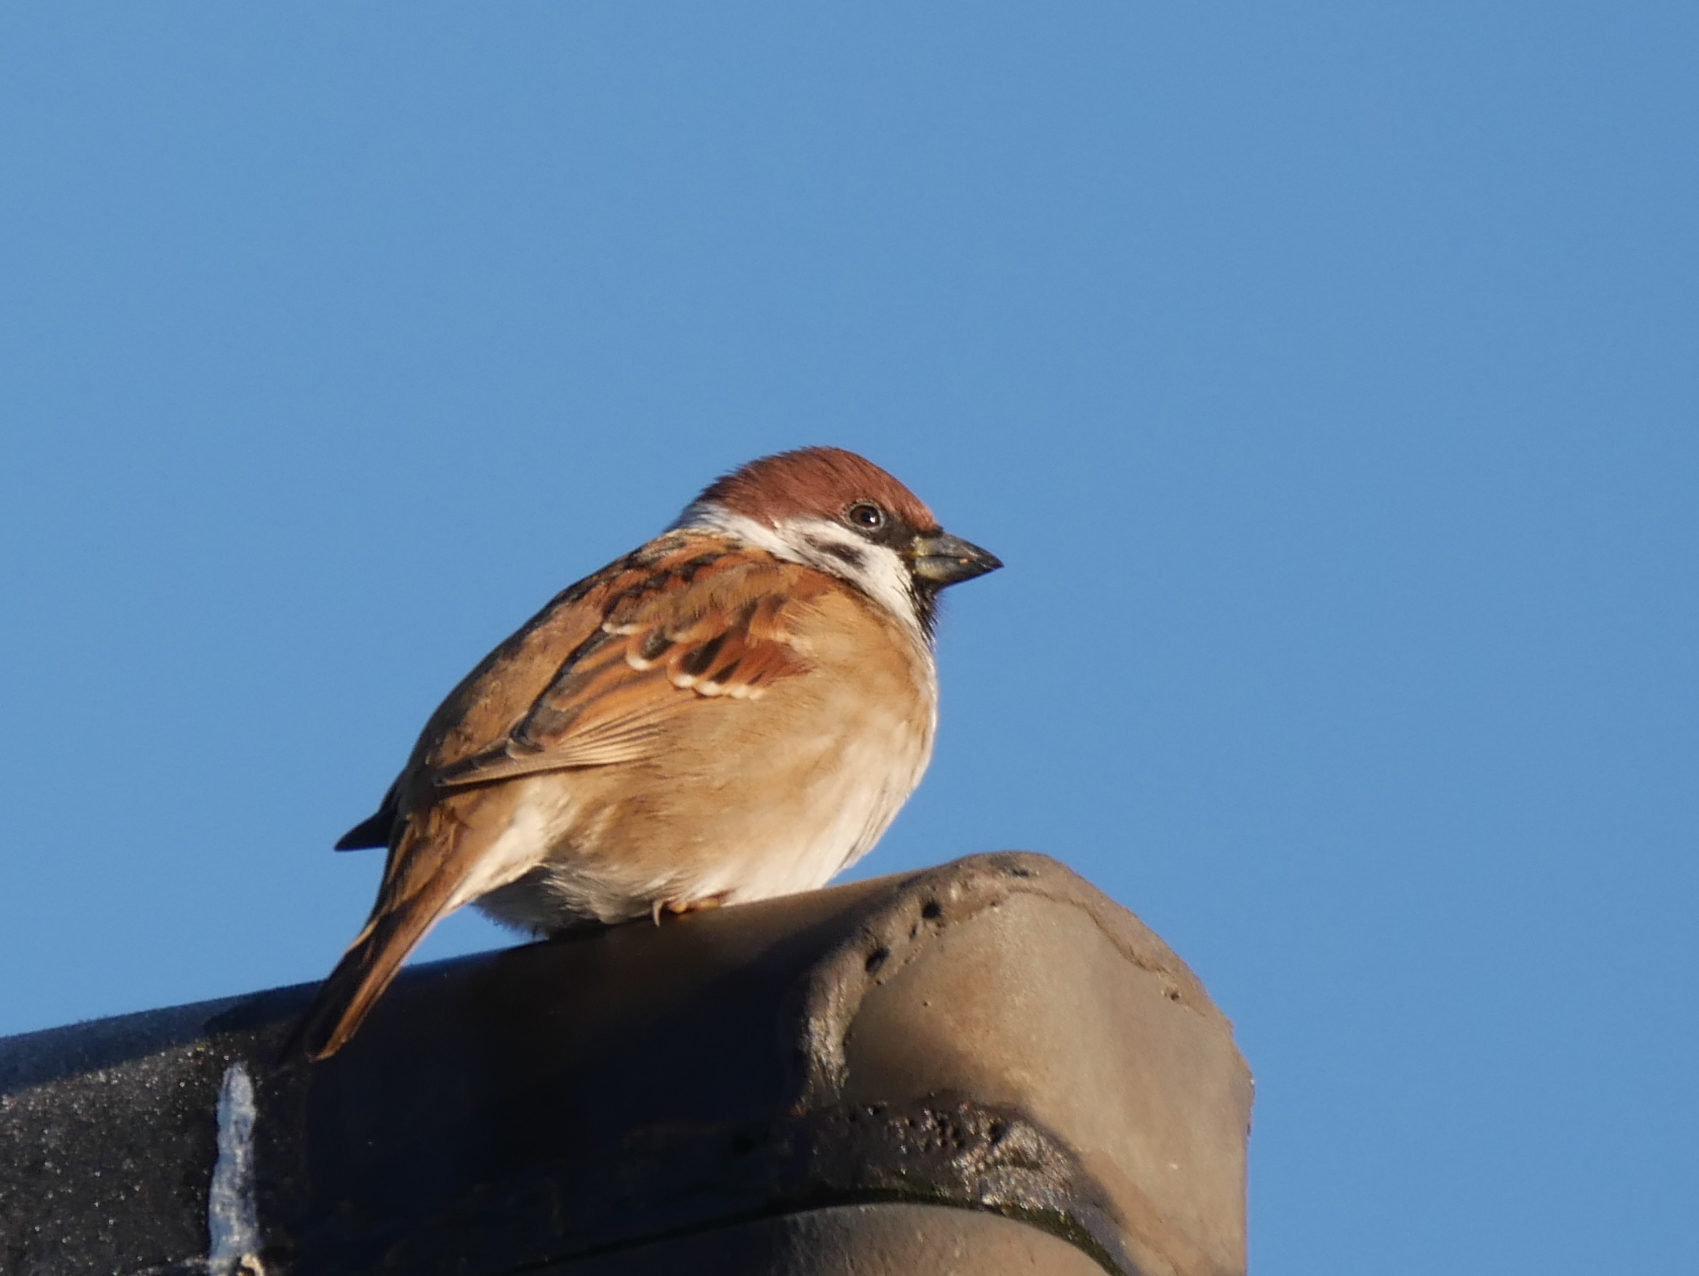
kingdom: Animalia
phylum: Chordata
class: Aves
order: Passeriformes
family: Passeridae
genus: Passer
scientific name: Passer montanus
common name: Eurasian tree sparrow
